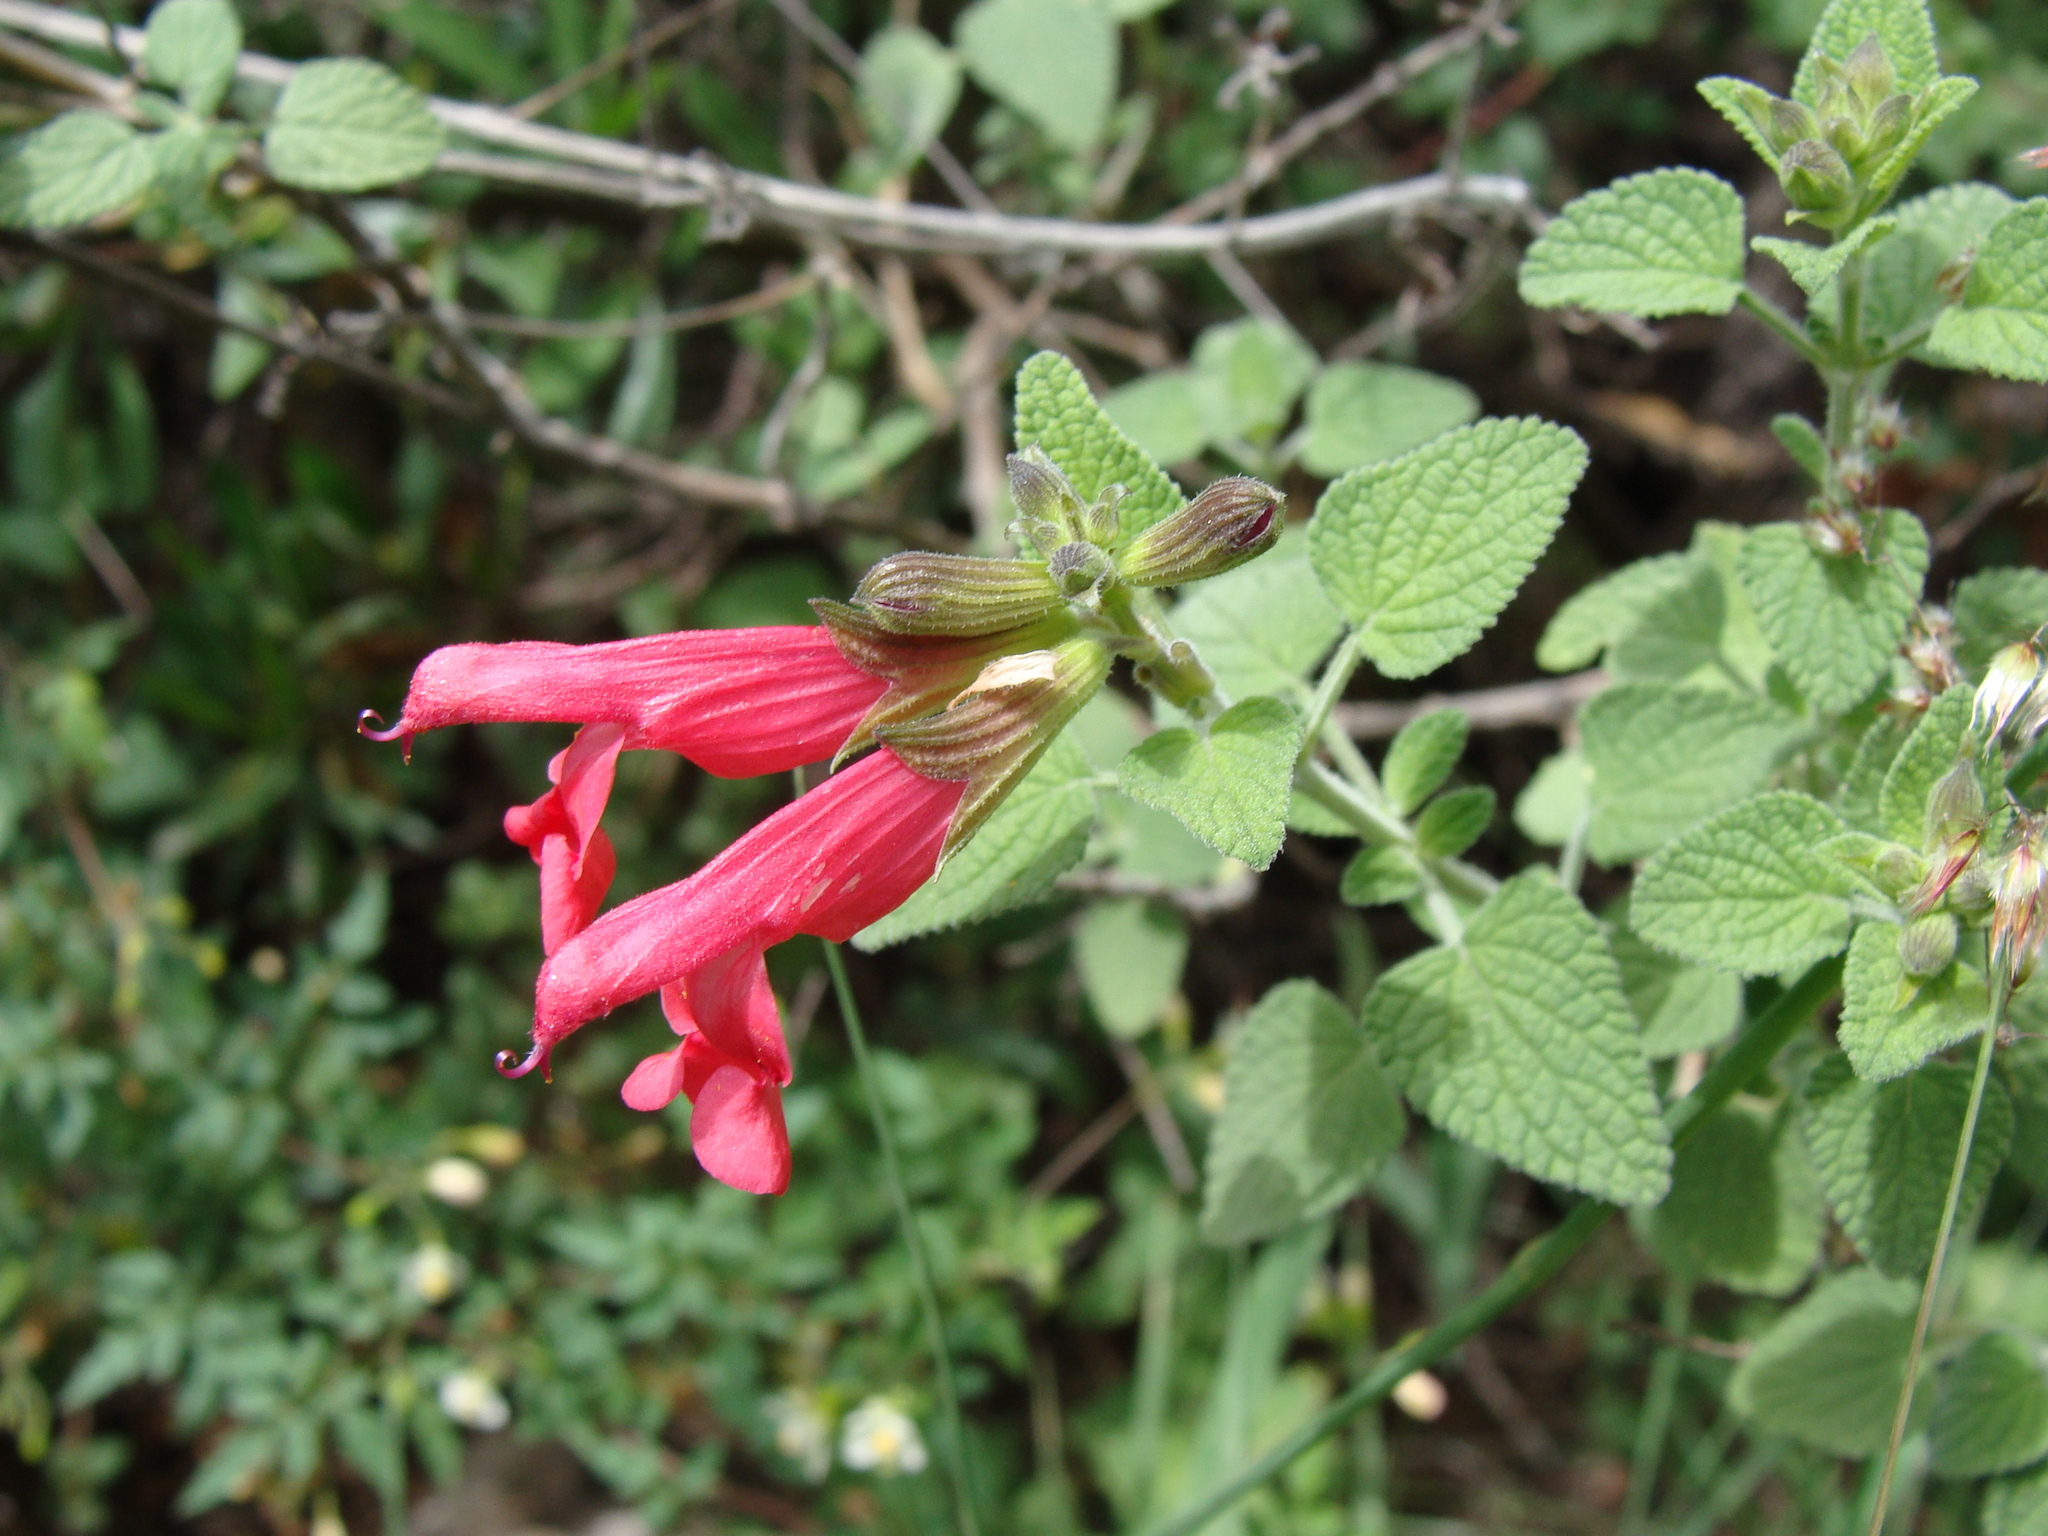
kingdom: Plantae
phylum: Tracheophyta
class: Magnoliopsida
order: Lamiales
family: Lamiaceae
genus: Salvia
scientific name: Salvia microphylla
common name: Baby sage
